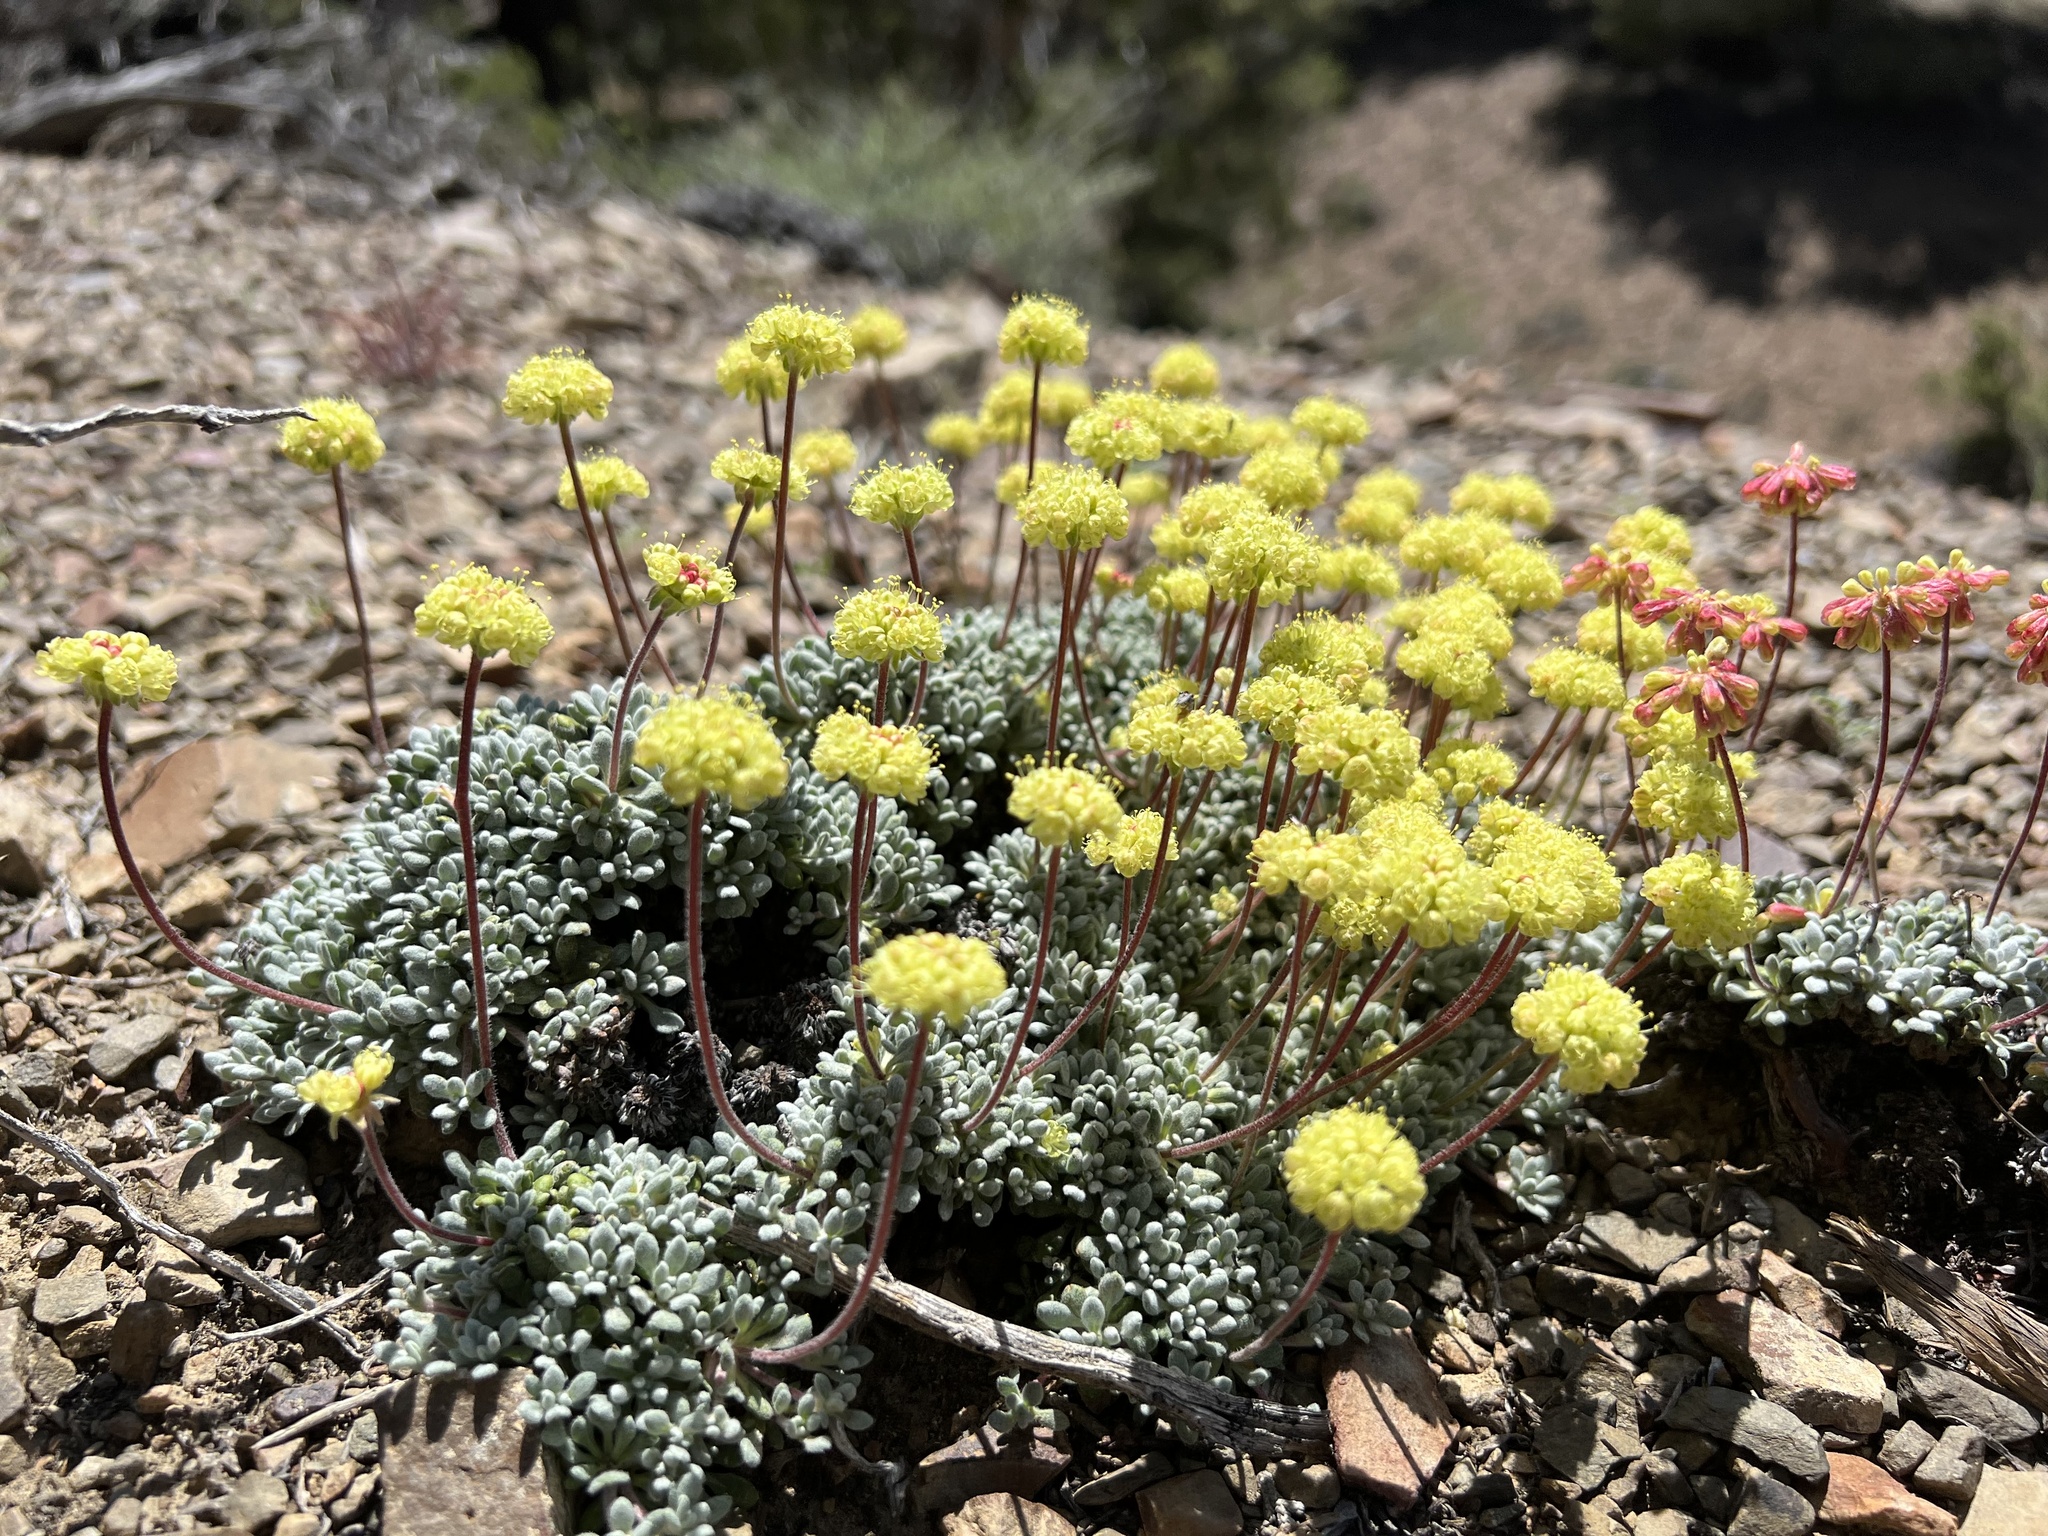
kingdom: Plantae
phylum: Tracheophyta
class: Magnoliopsida
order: Caryophyllales
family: Polygonaceae
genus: Eriogonum
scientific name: Eriogonum caespitosum
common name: Matted wild buckwheat
